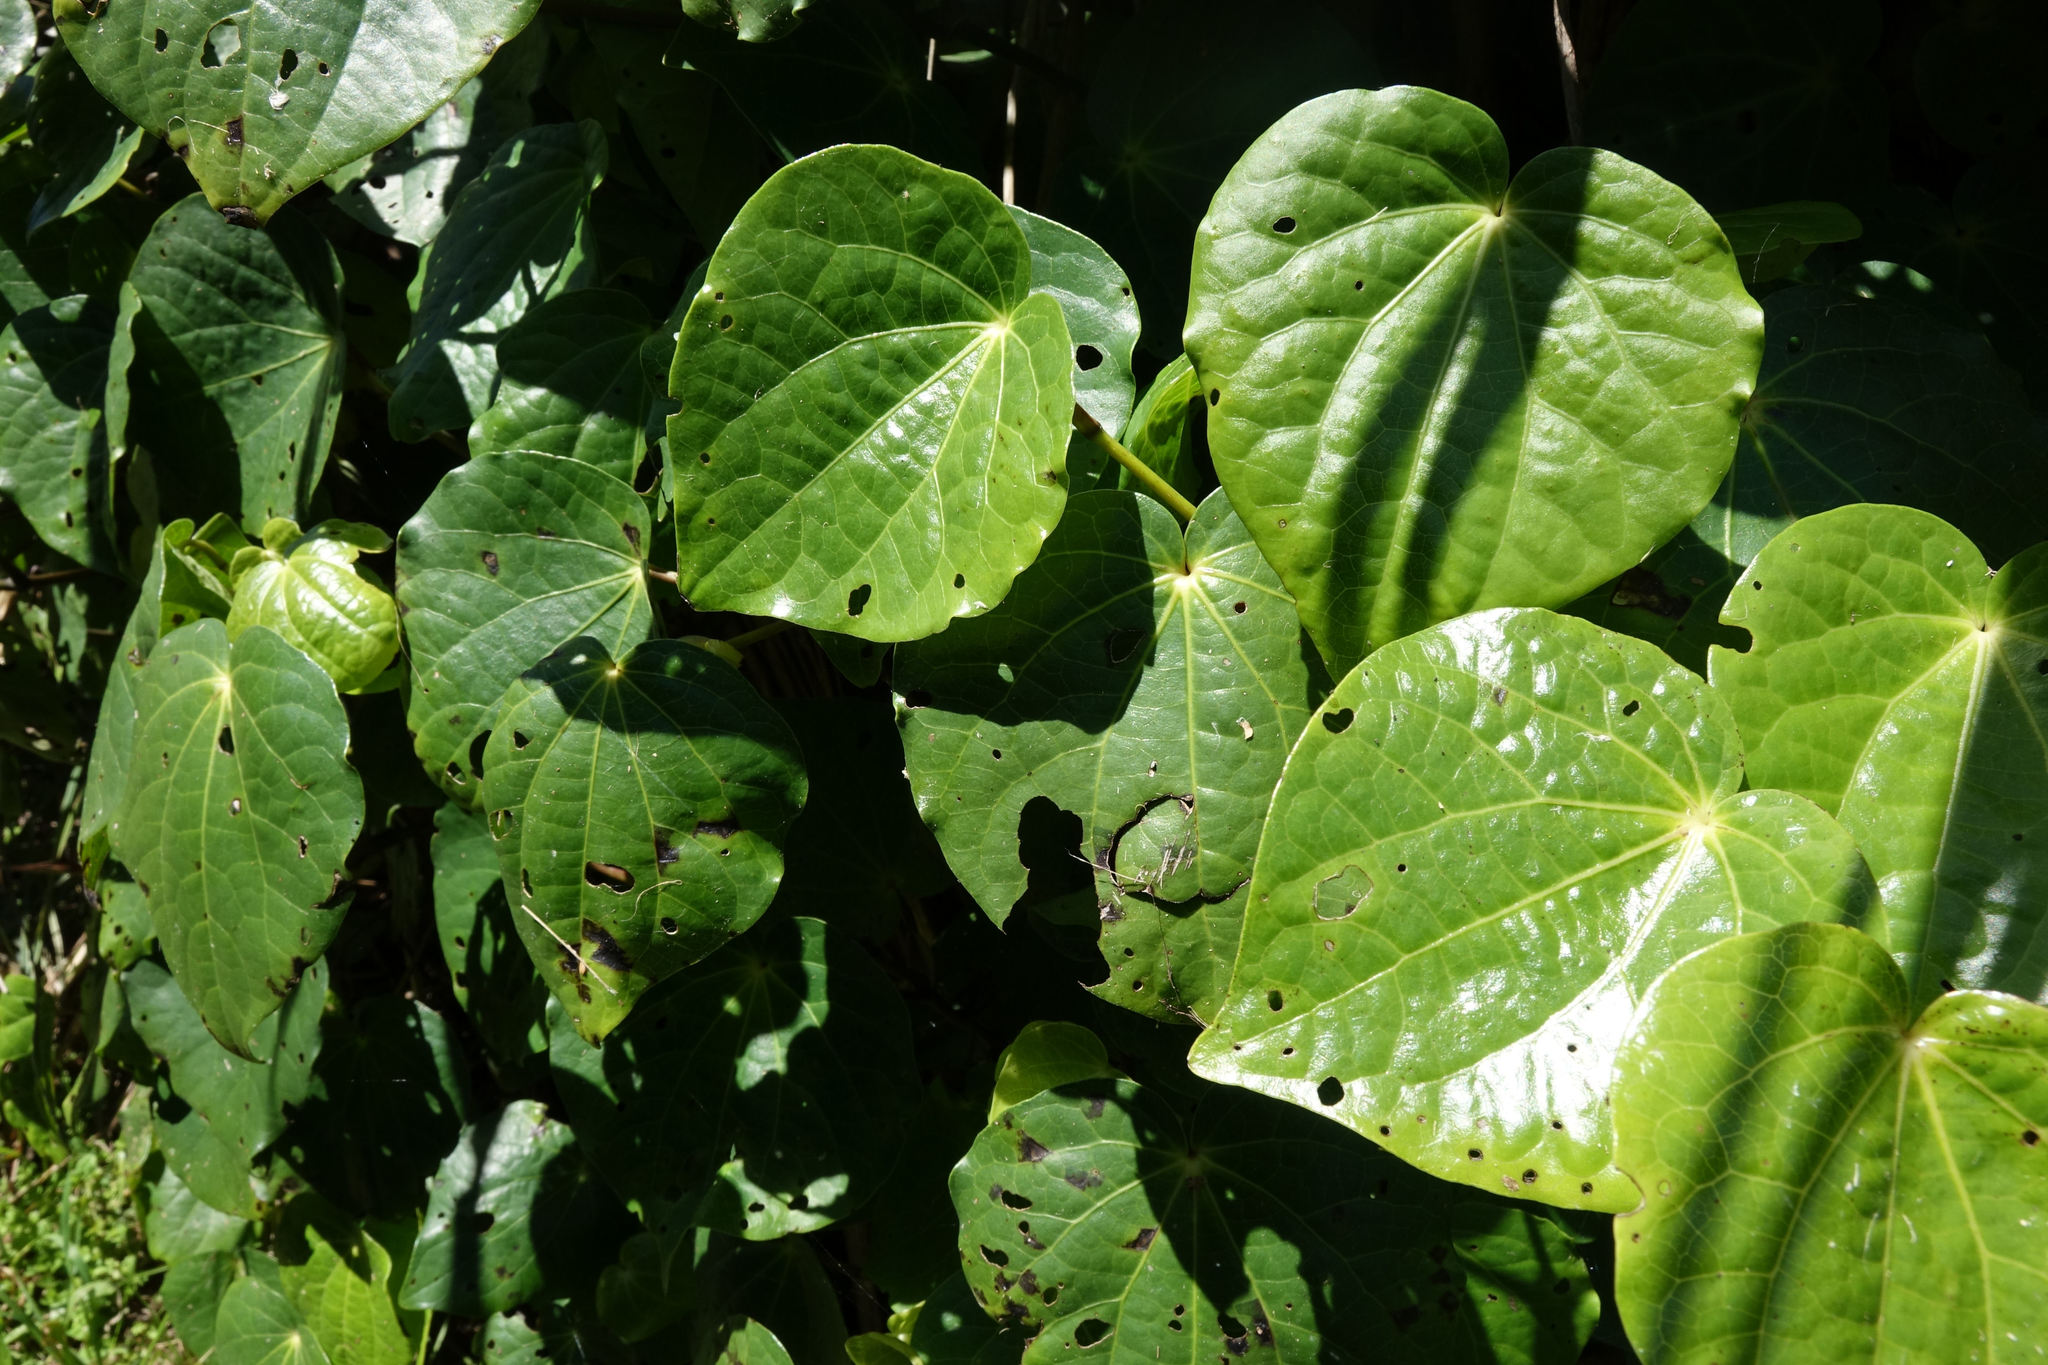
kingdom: Plantae
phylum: Tracheophyta
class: Magnoliopsida
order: Piperales
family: Piperaceae
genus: Macropiper
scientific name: Macropiper excelsum
